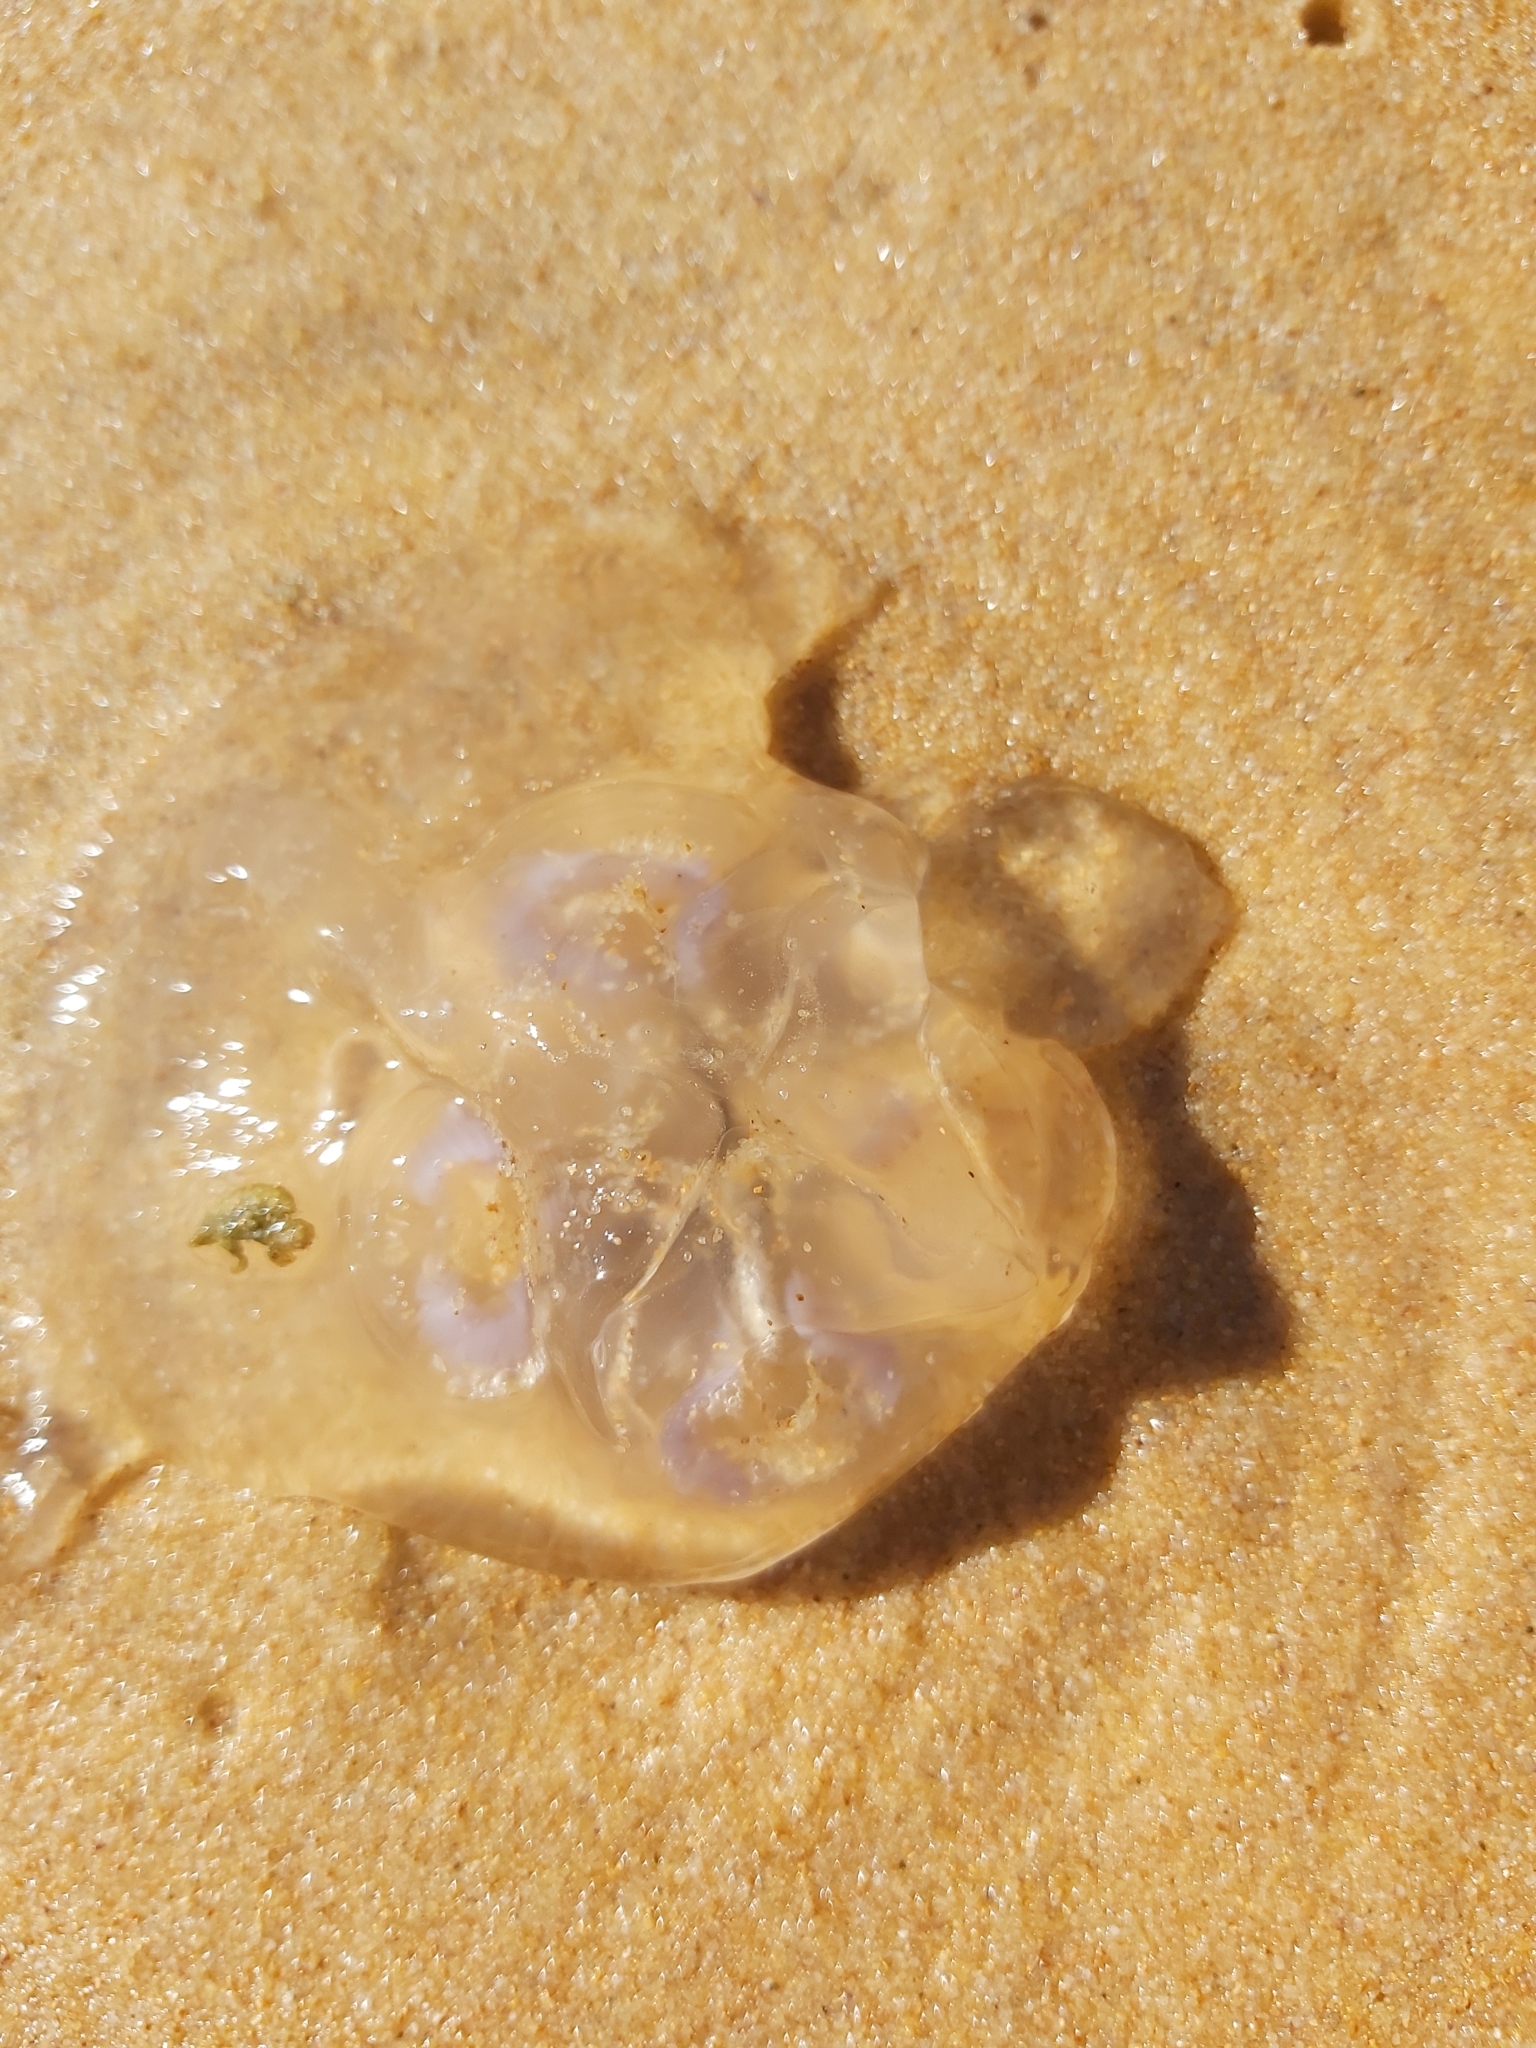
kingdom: Animalia
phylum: Cnidaria
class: Scyphozoa
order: Semaeostomeae
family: Ulmaridae
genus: Aurelia
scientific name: Aurelia
